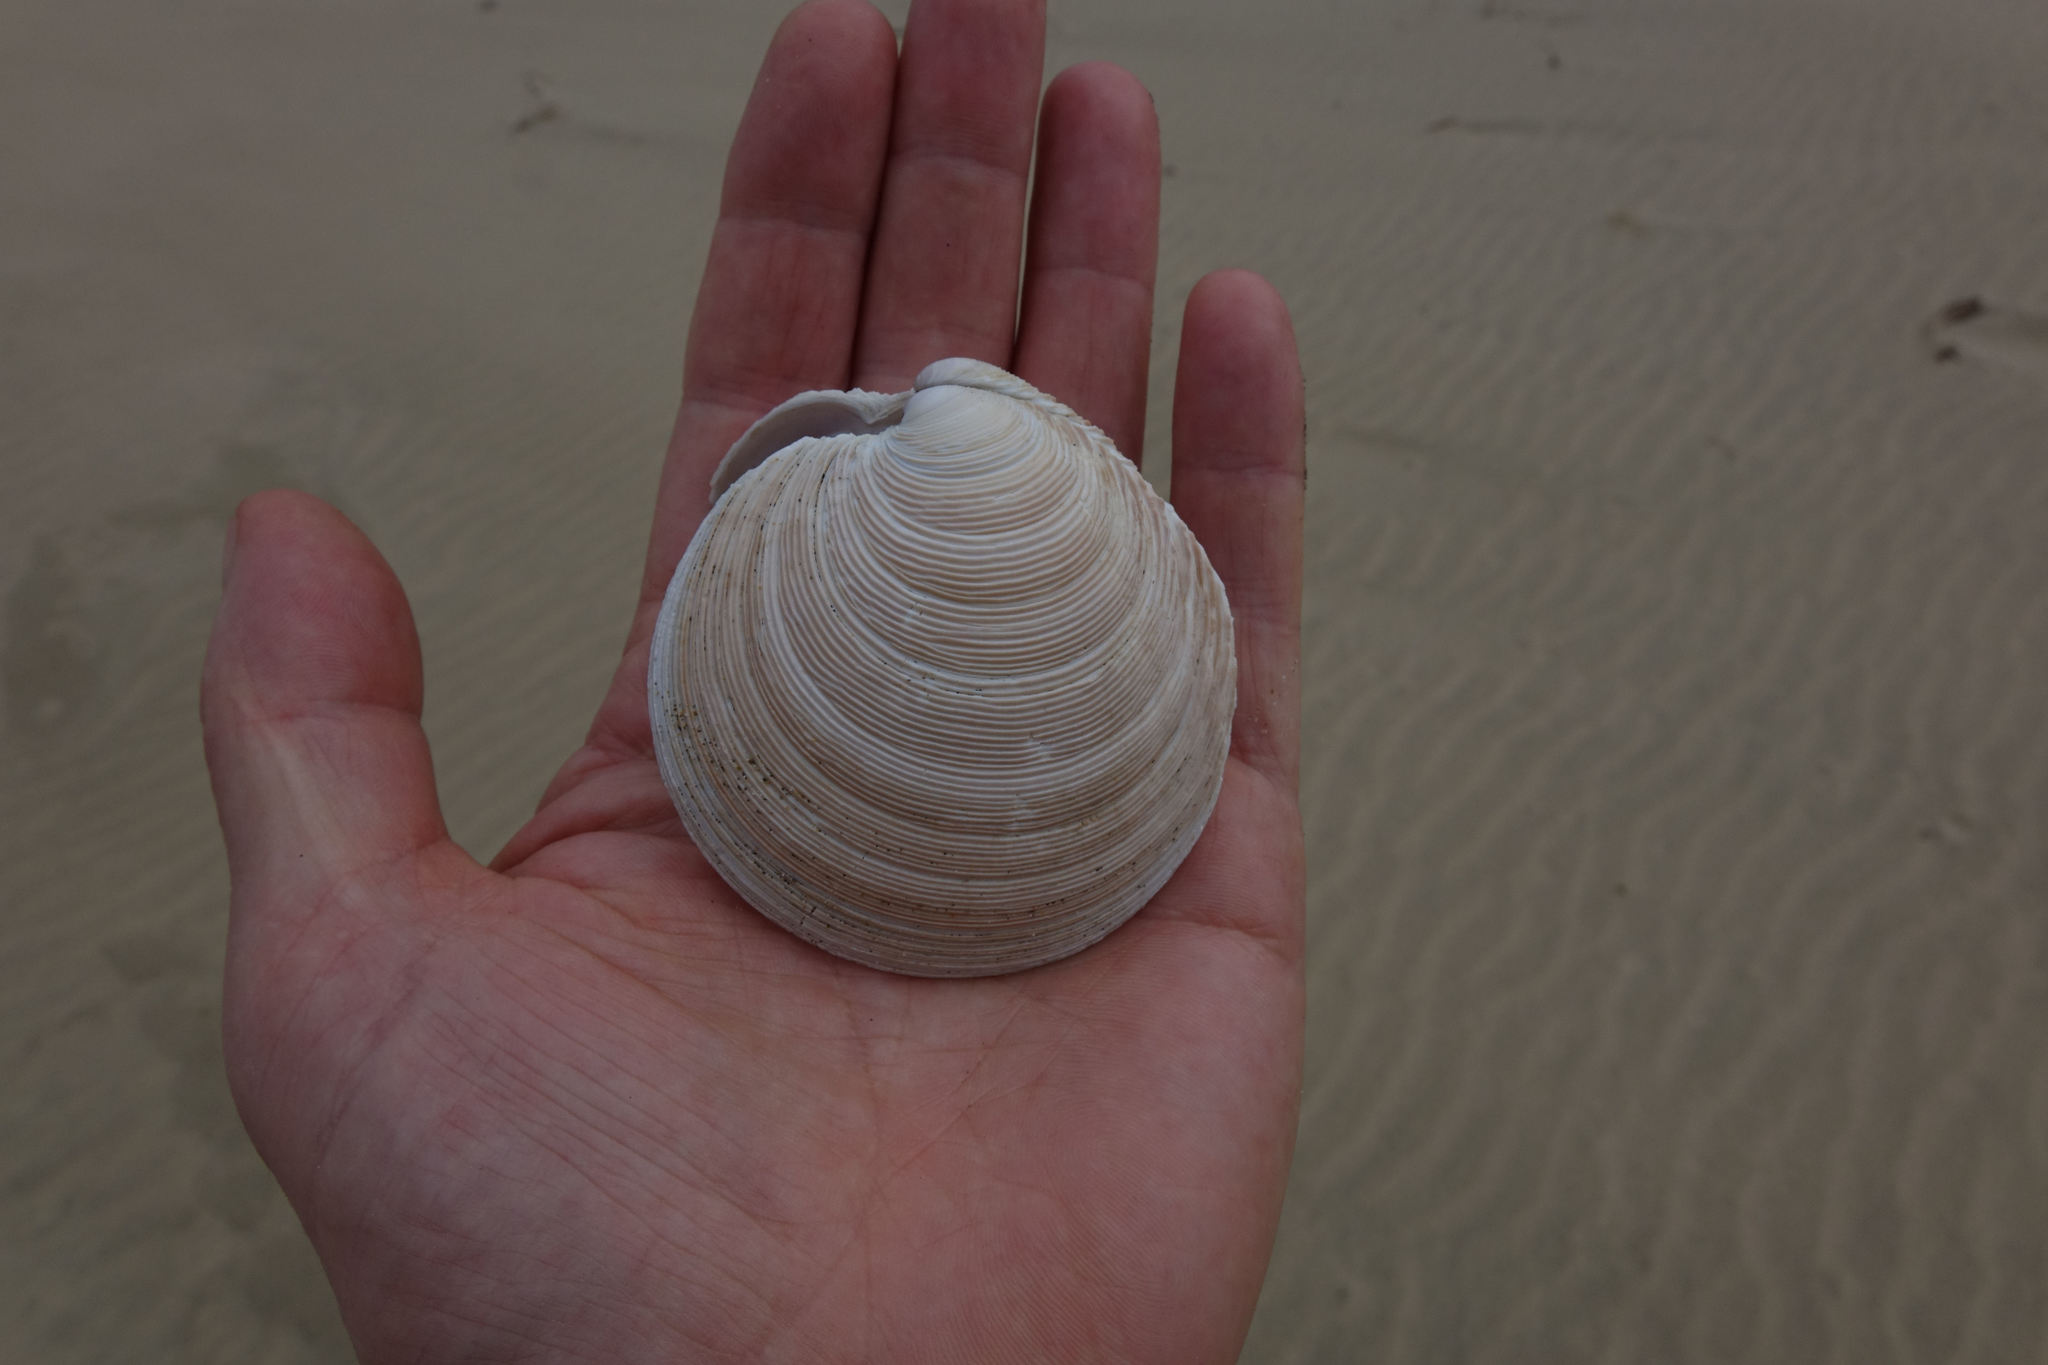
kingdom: Animalia
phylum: Mollusca
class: Bivalvia
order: Venerida
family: Veneridae
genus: Dosinia
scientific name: Dosinia anus
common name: Old-woman dosinia
